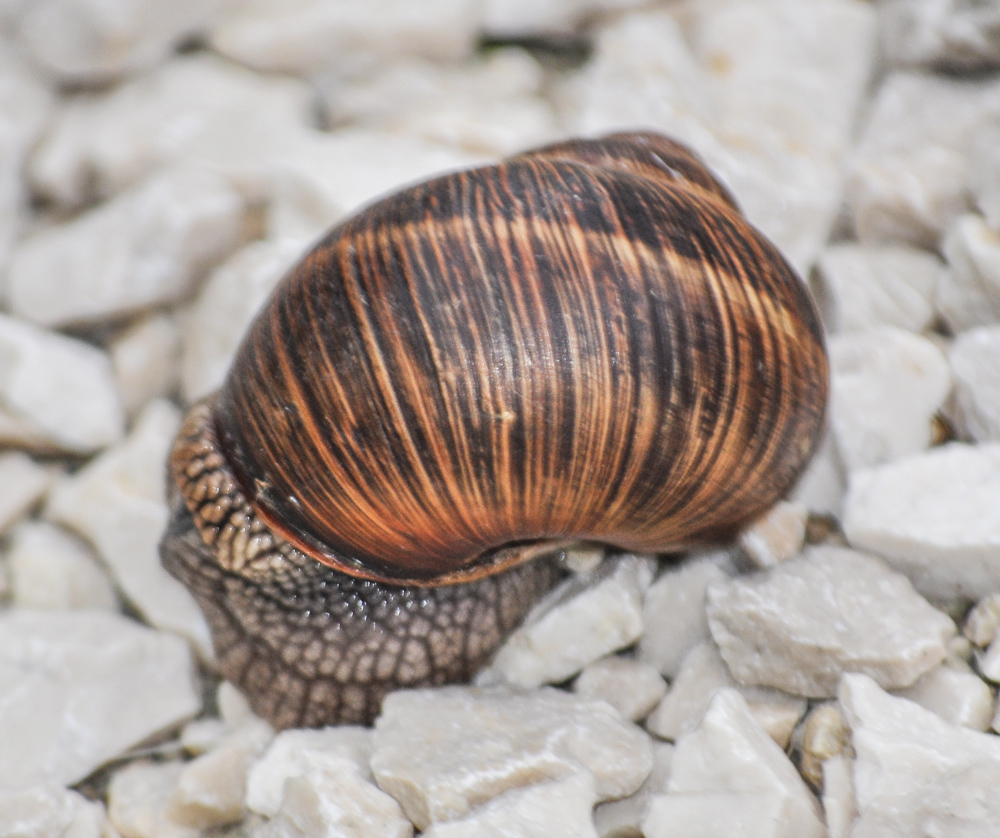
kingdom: Animalia
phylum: Mollusca
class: Gastropoda
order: Stylommatophora
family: Helicidae
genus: Helix
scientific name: Helix pomatia
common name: Roman snail
